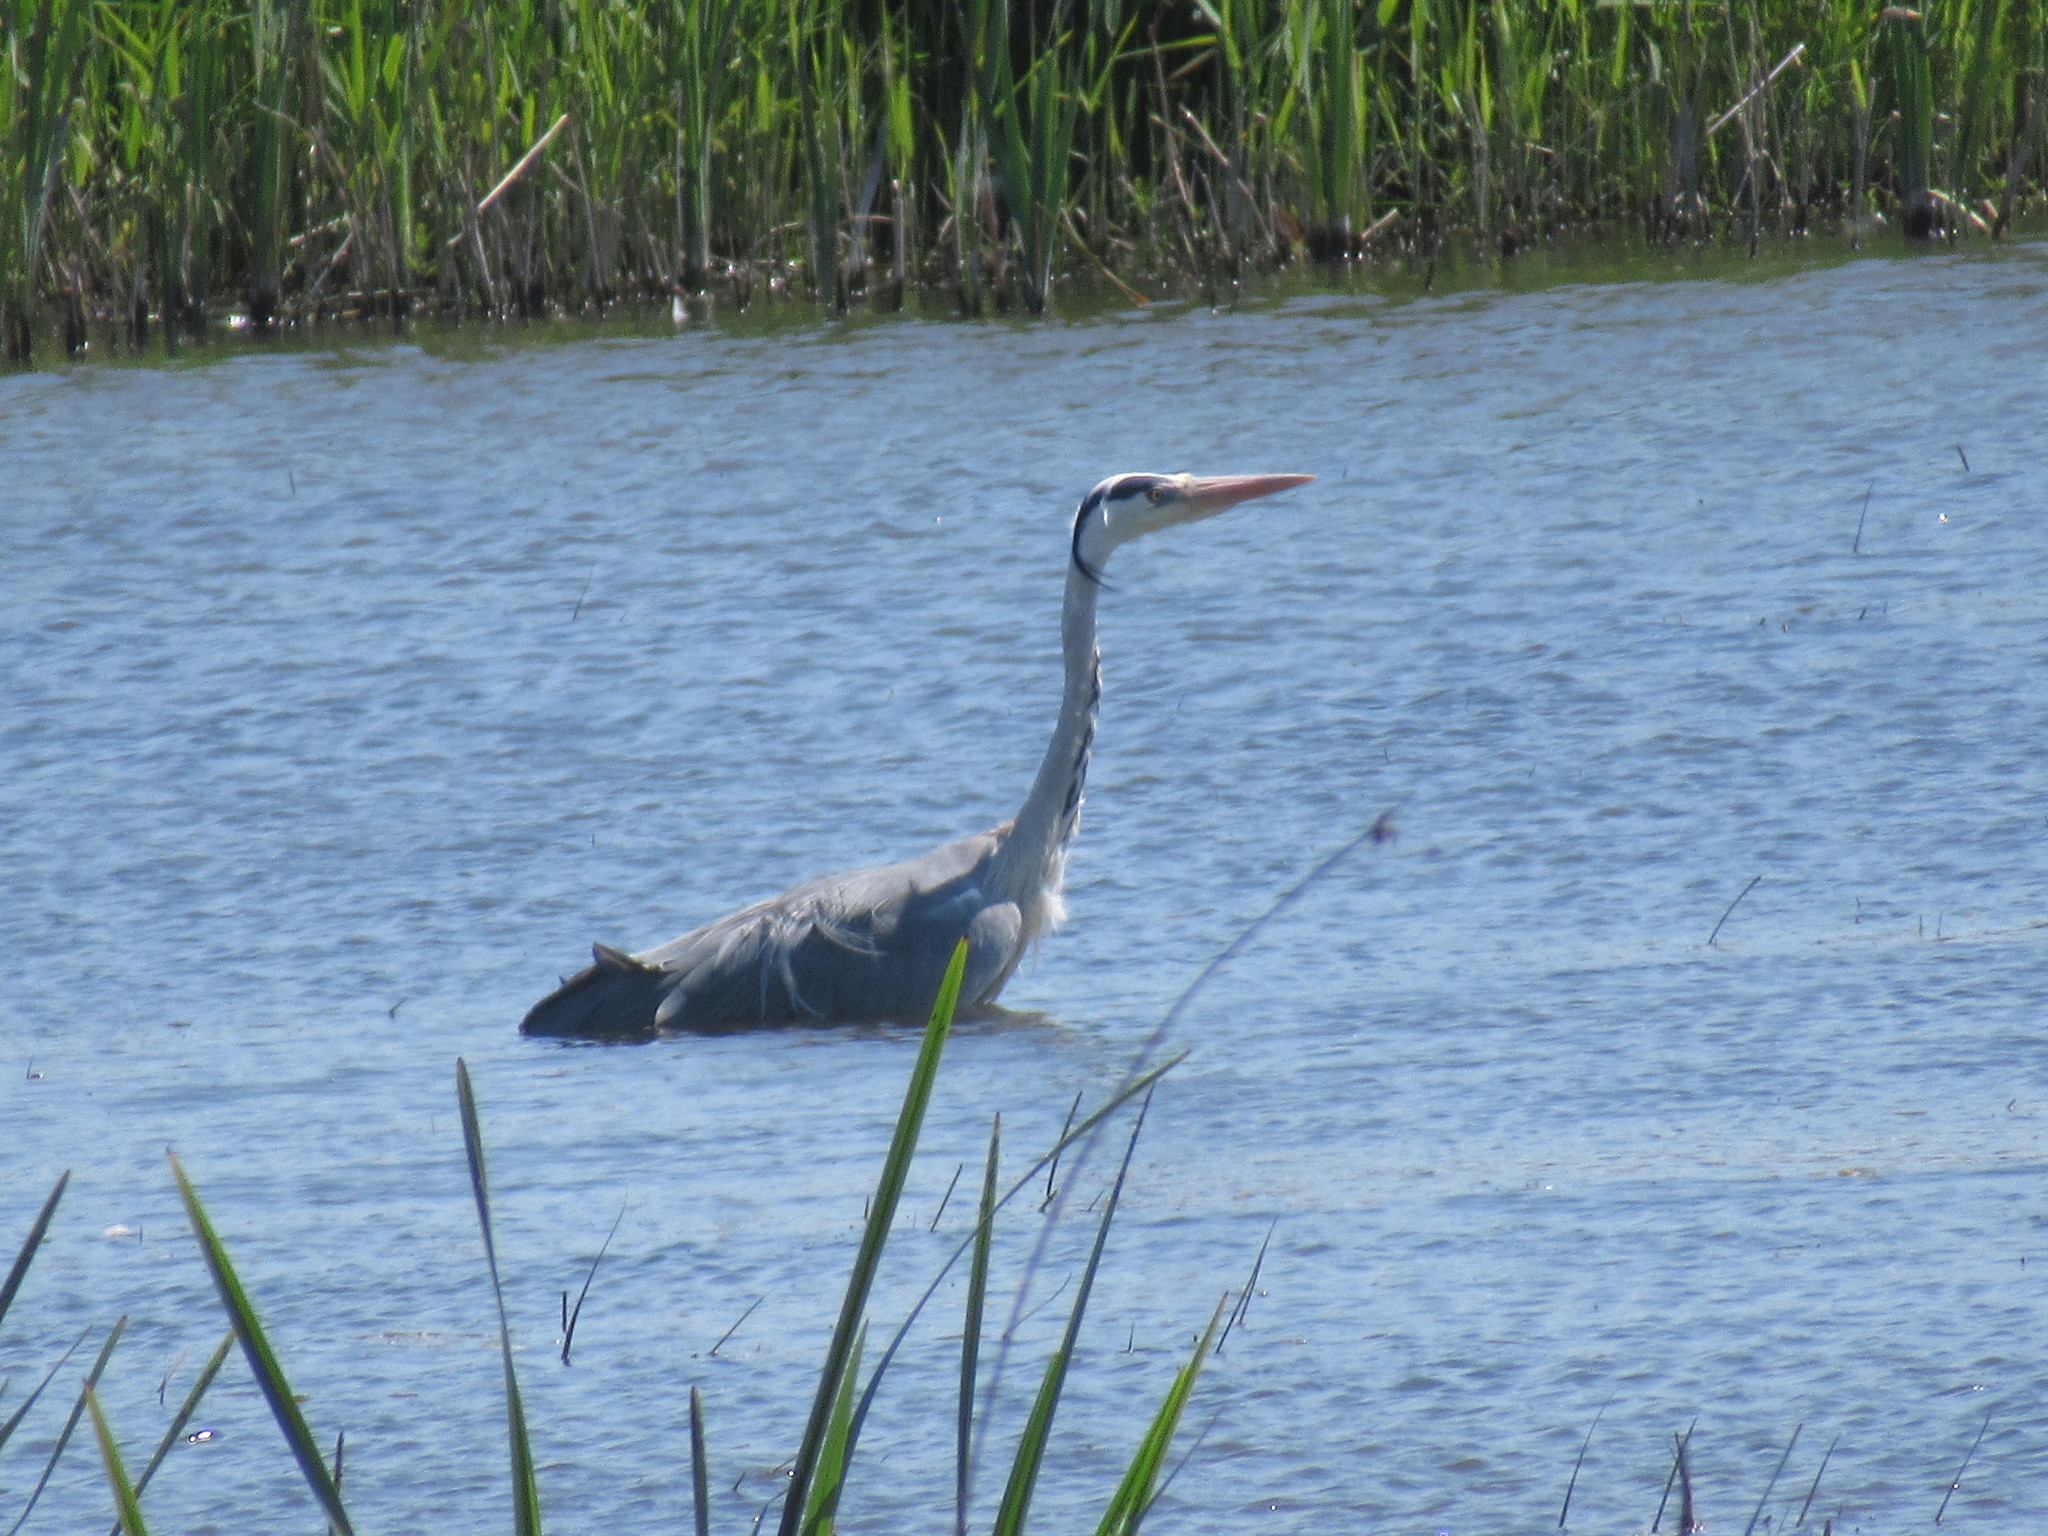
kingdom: Animalia
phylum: Chordata
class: Aves
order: Pelecaniformes
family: Ardeidae
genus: Ardea
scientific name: Ardea cinerea
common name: Grey heron
